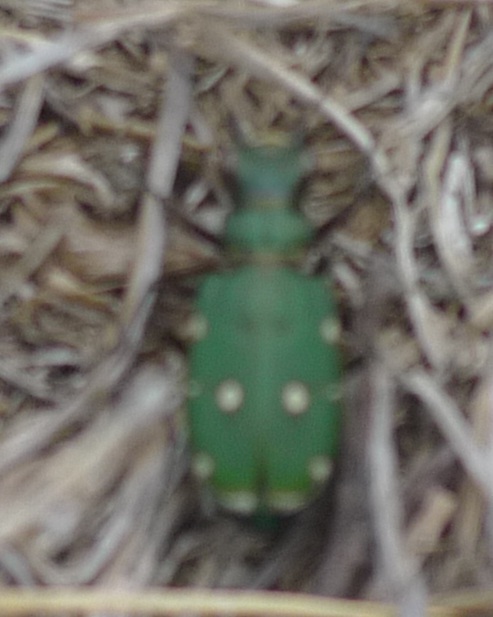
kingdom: Animalia
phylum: Arthropoda
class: Insecta
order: Coleoptera
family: Carabidae
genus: Cicindela
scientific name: Cicindela campestris
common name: Common tiger beetle
